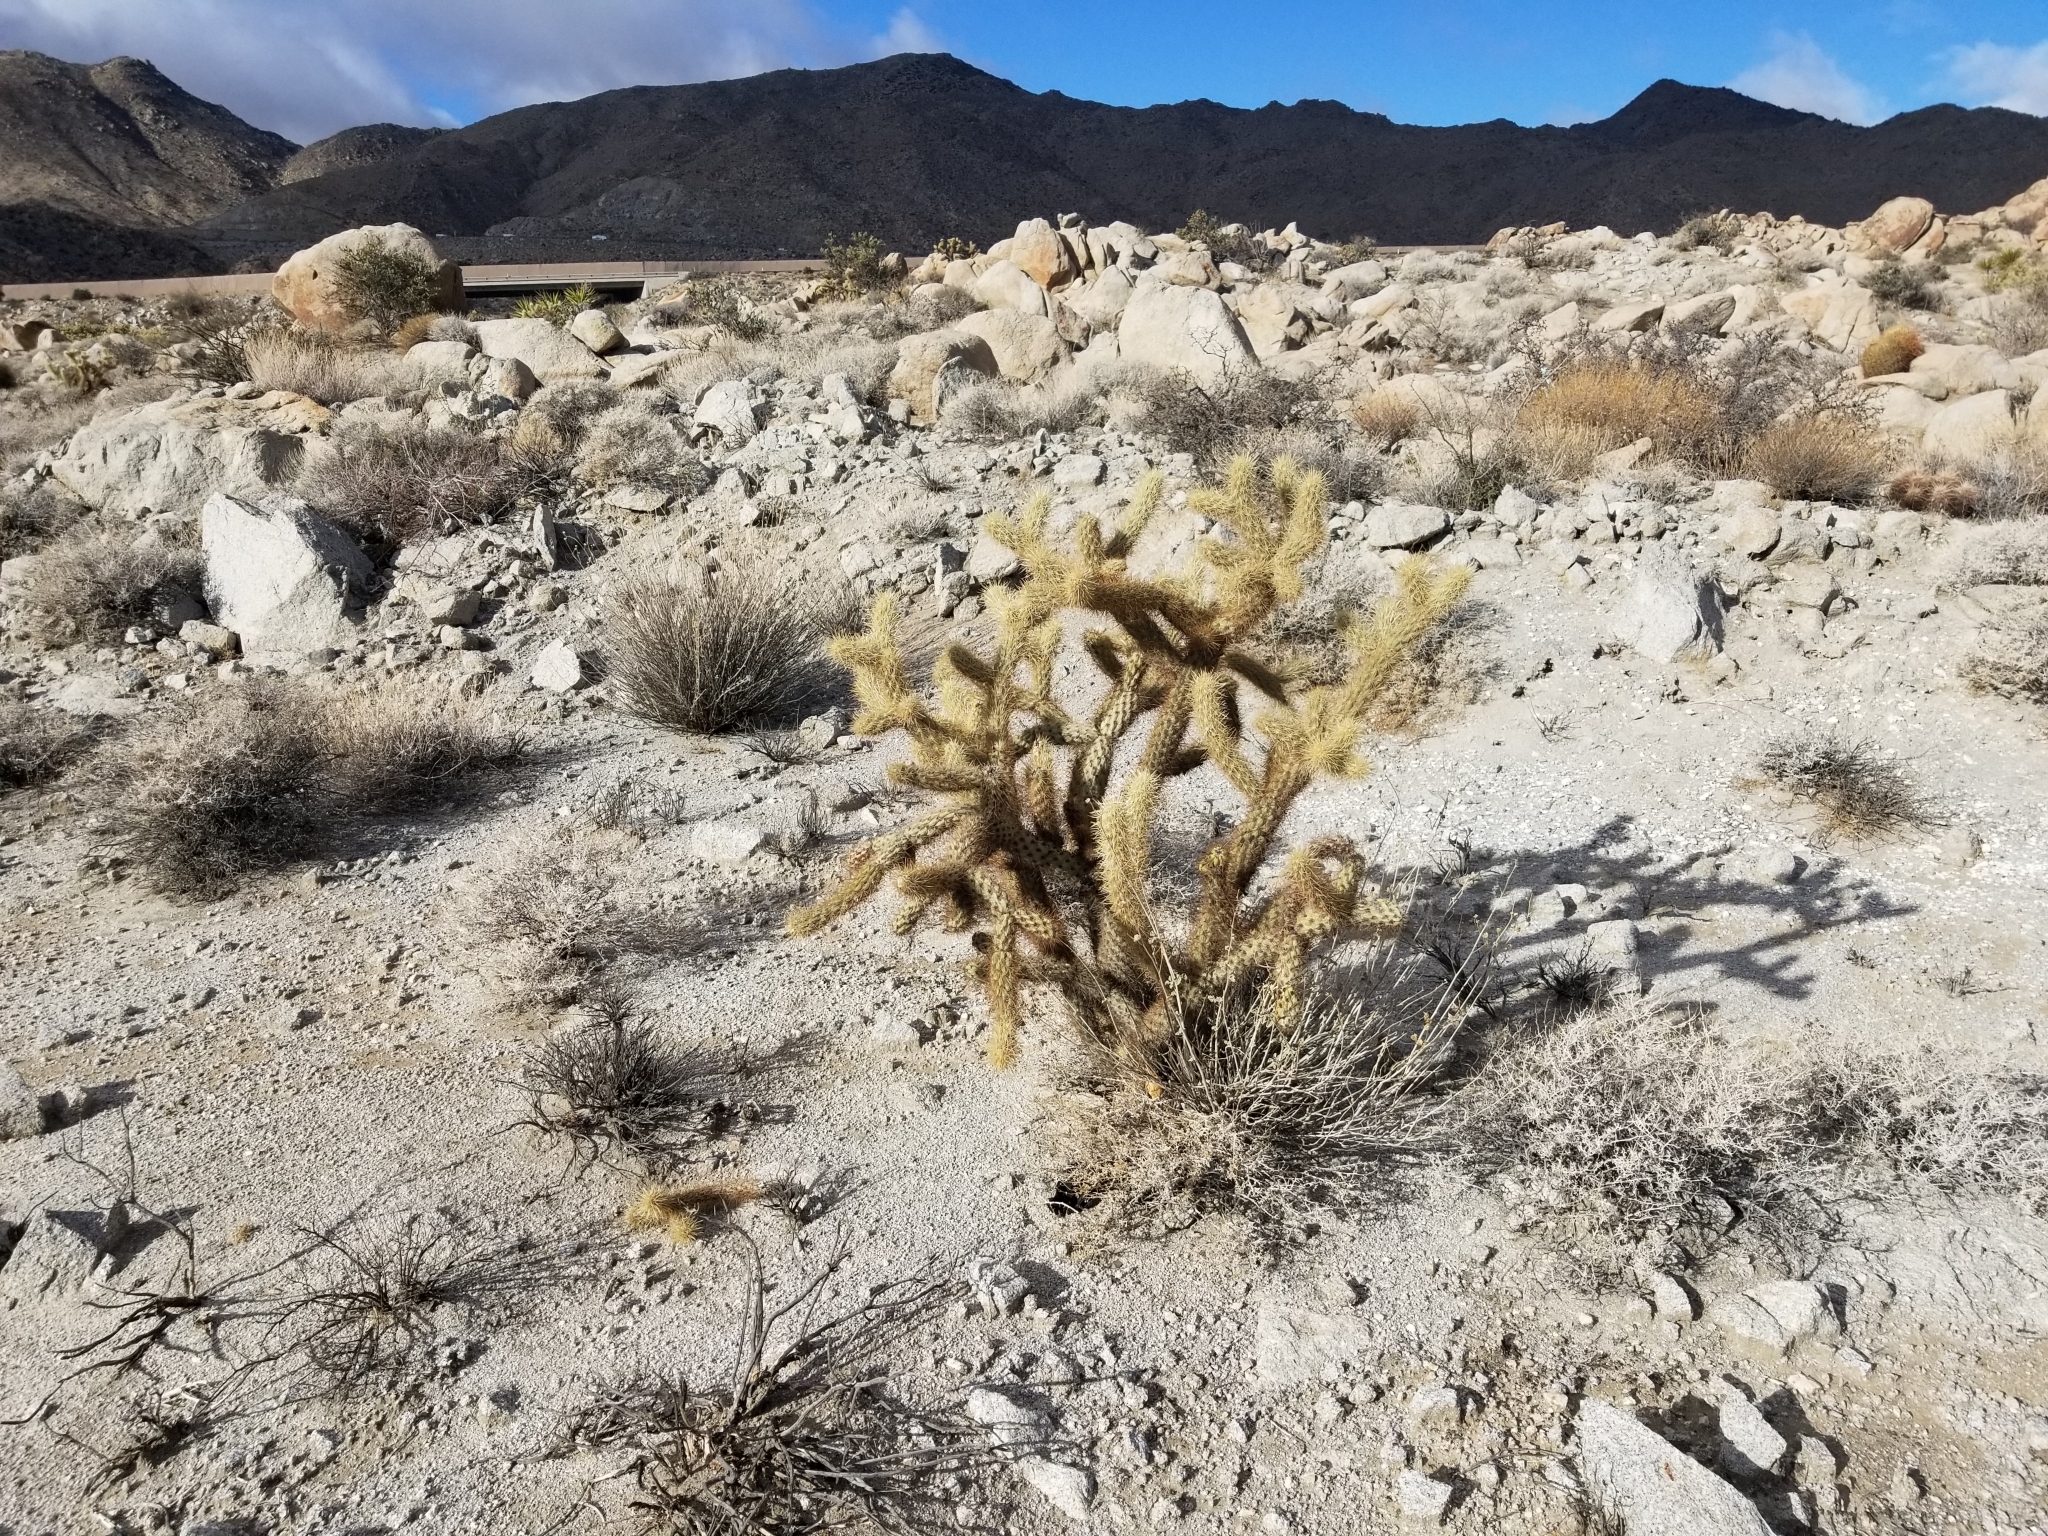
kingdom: Plantae
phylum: Tracheophyta
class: Magnoliopsida
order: Caryophyllales
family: Cactaceae
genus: Cylindropuntia
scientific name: Cylindropuntia wolfii
